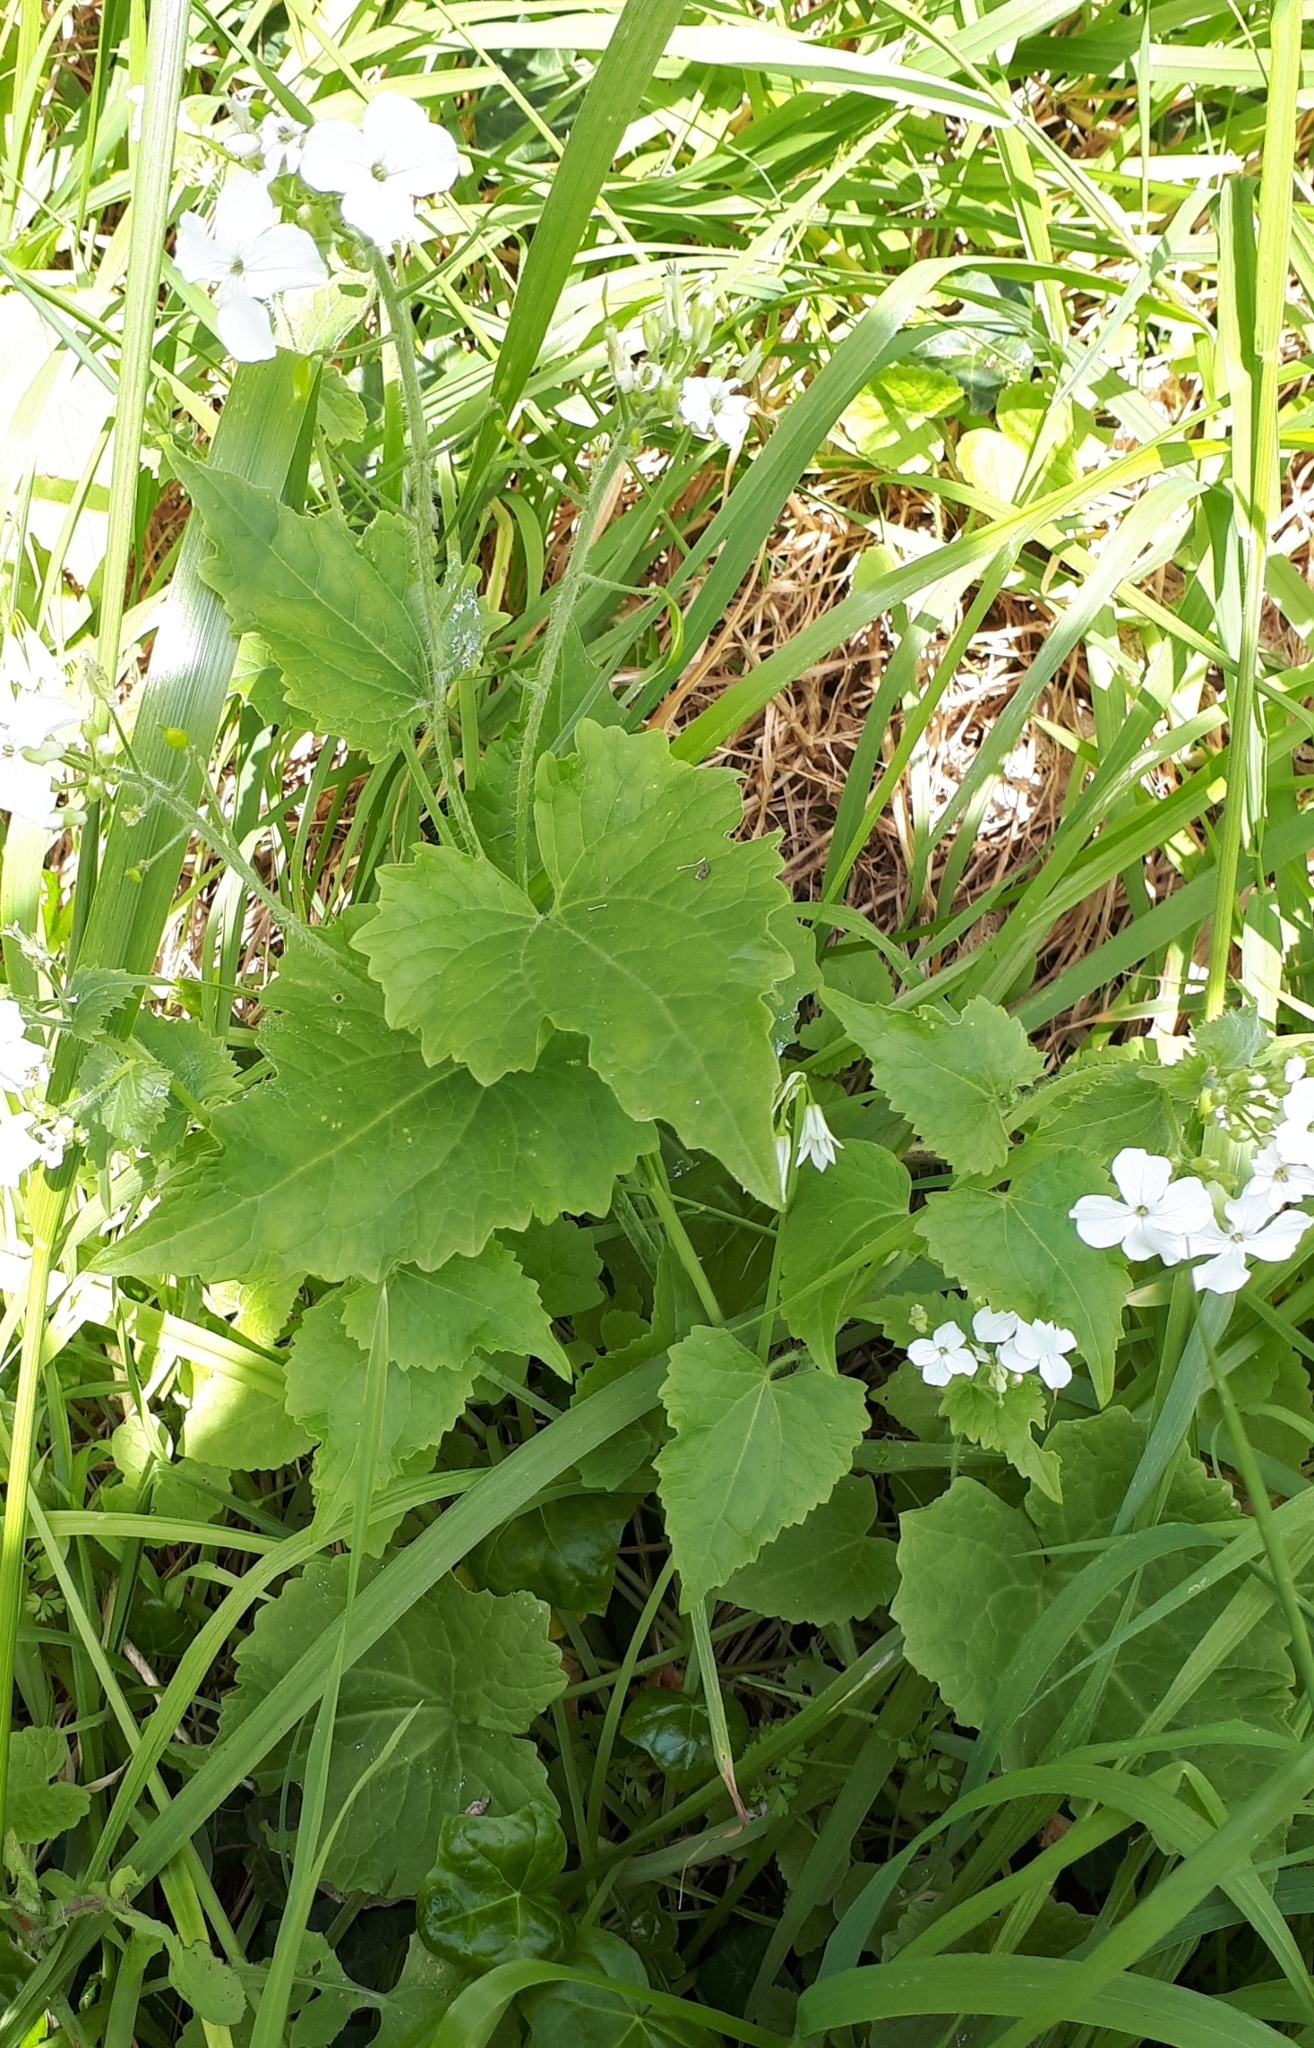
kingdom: Plantae
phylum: Tracheophyta
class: Magnoliopsida
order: Brassicales
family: Brassicaceae
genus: Lunaria
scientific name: Lunaria annua
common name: Honesty
